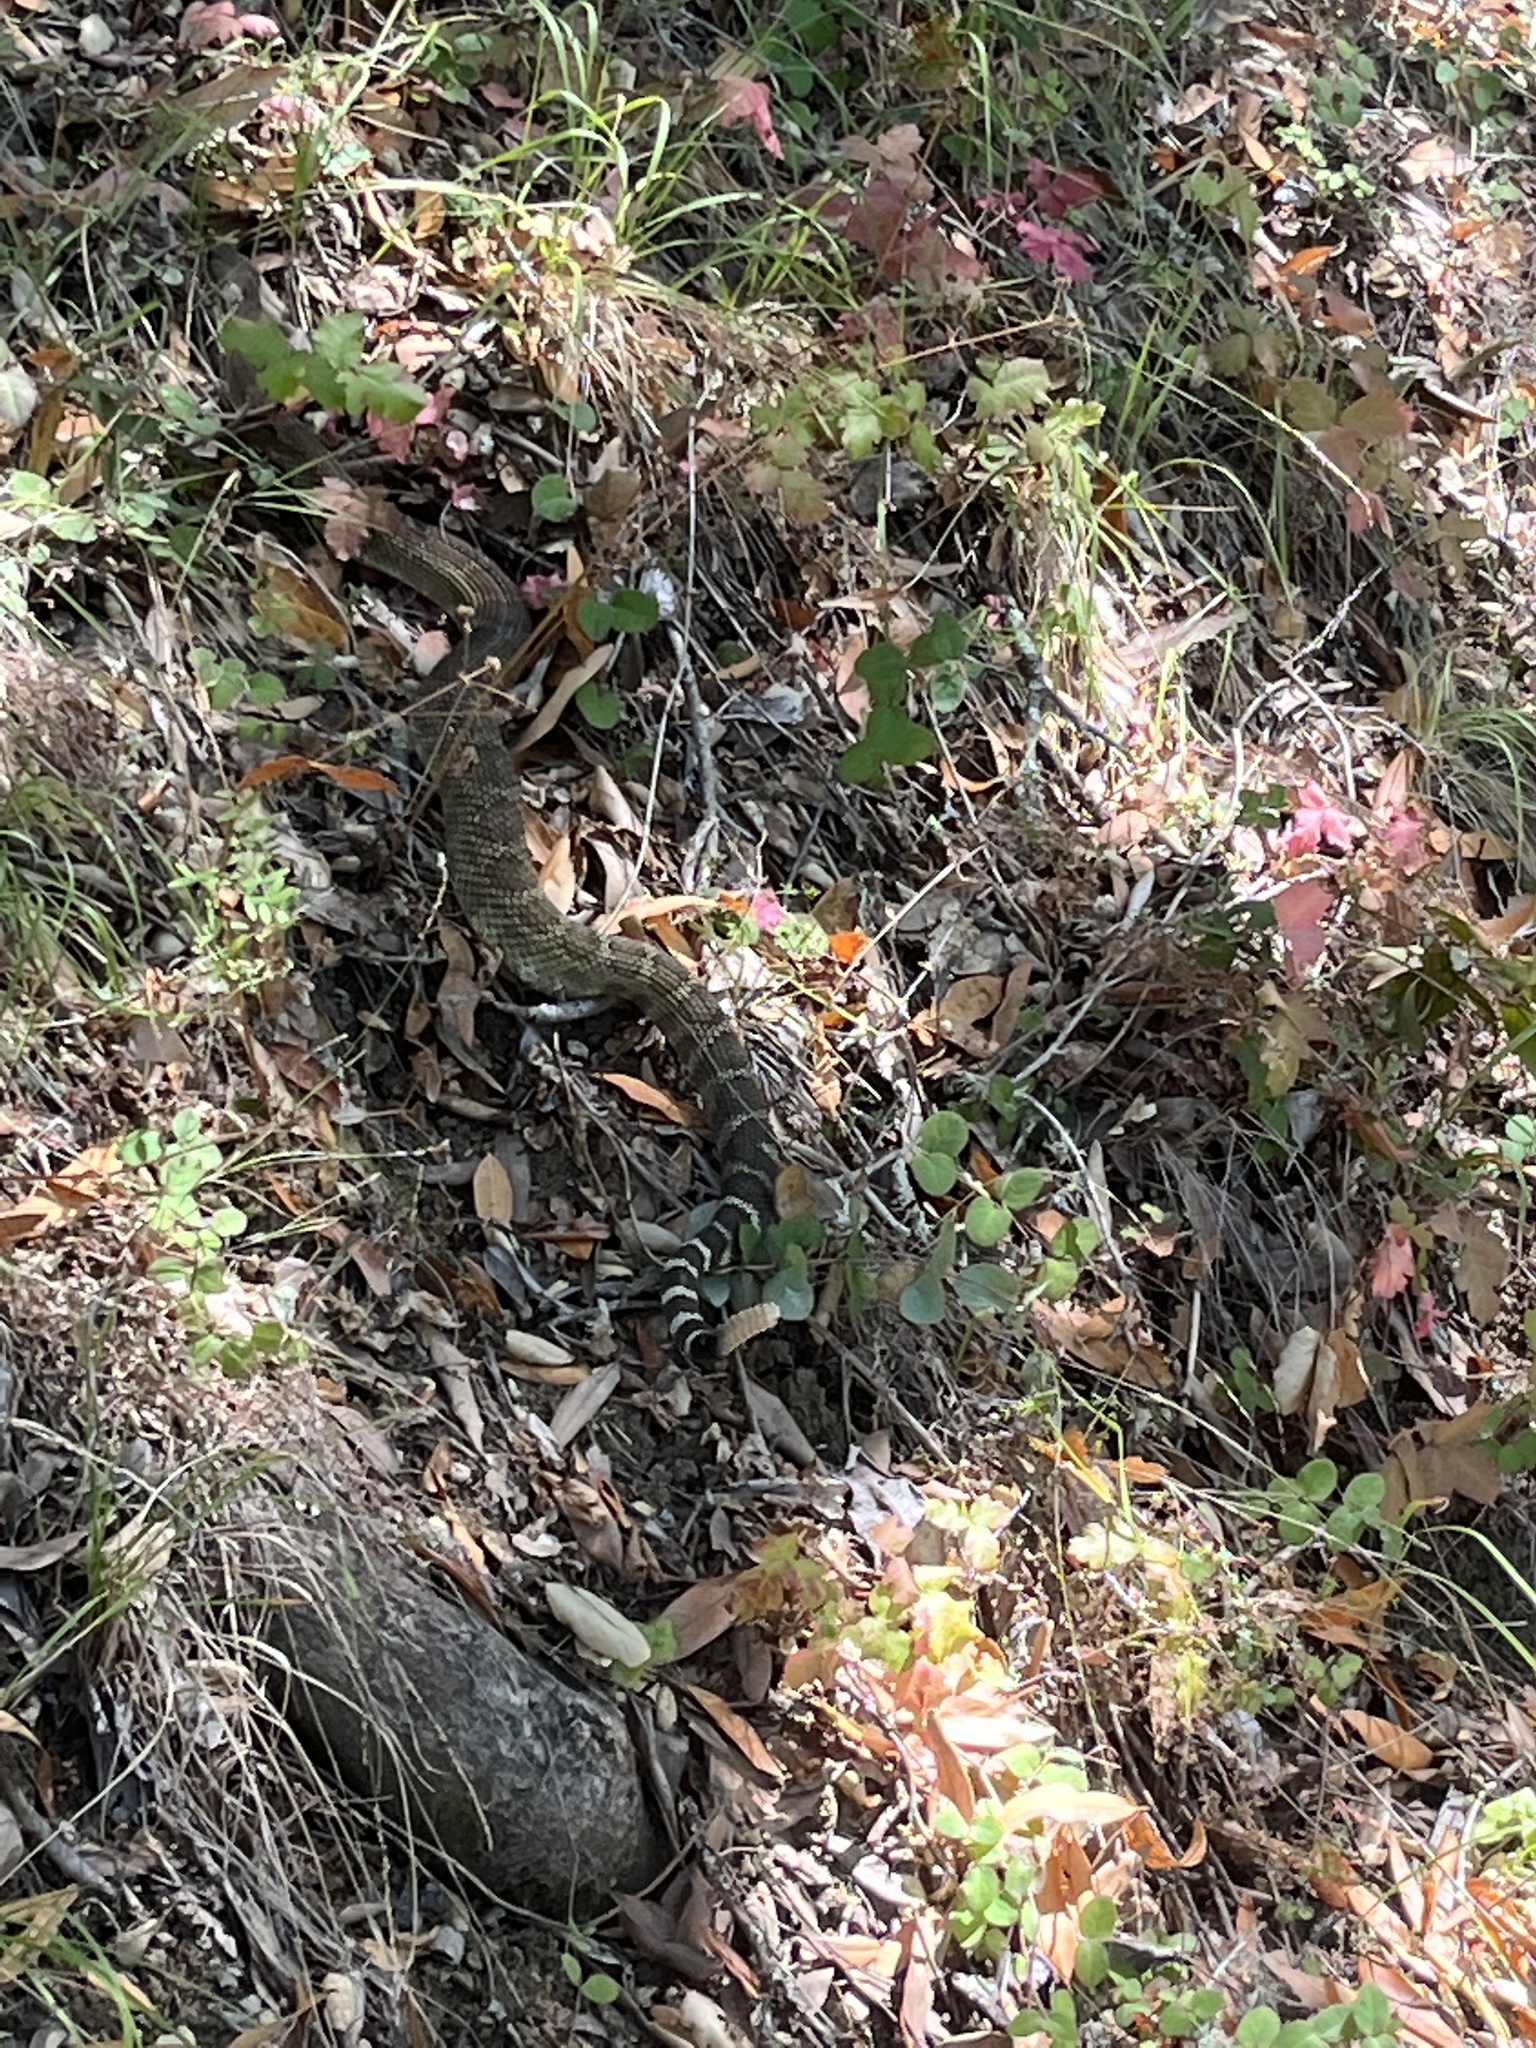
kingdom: Animalia
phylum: Chordata
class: Squamata
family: Viperidae
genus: Crotalus
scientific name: Crotalus oreganus
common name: Abyssus
